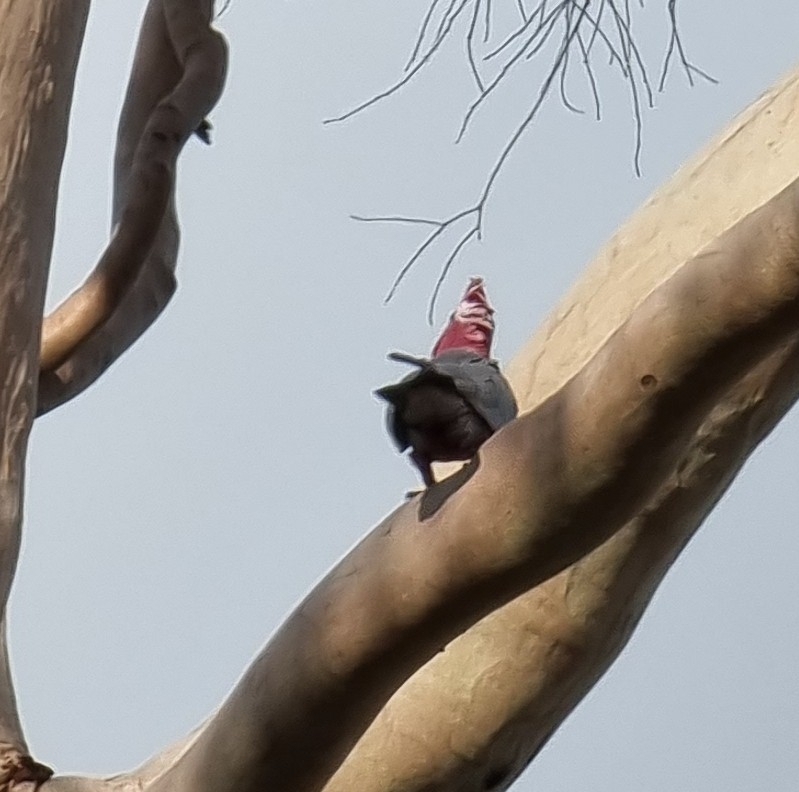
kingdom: Animalia
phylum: Chordata
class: Aves
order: Psittaciformes
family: Psittacidae
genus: Eolophus
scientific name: Eolophus roseicapilla
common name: Galah
